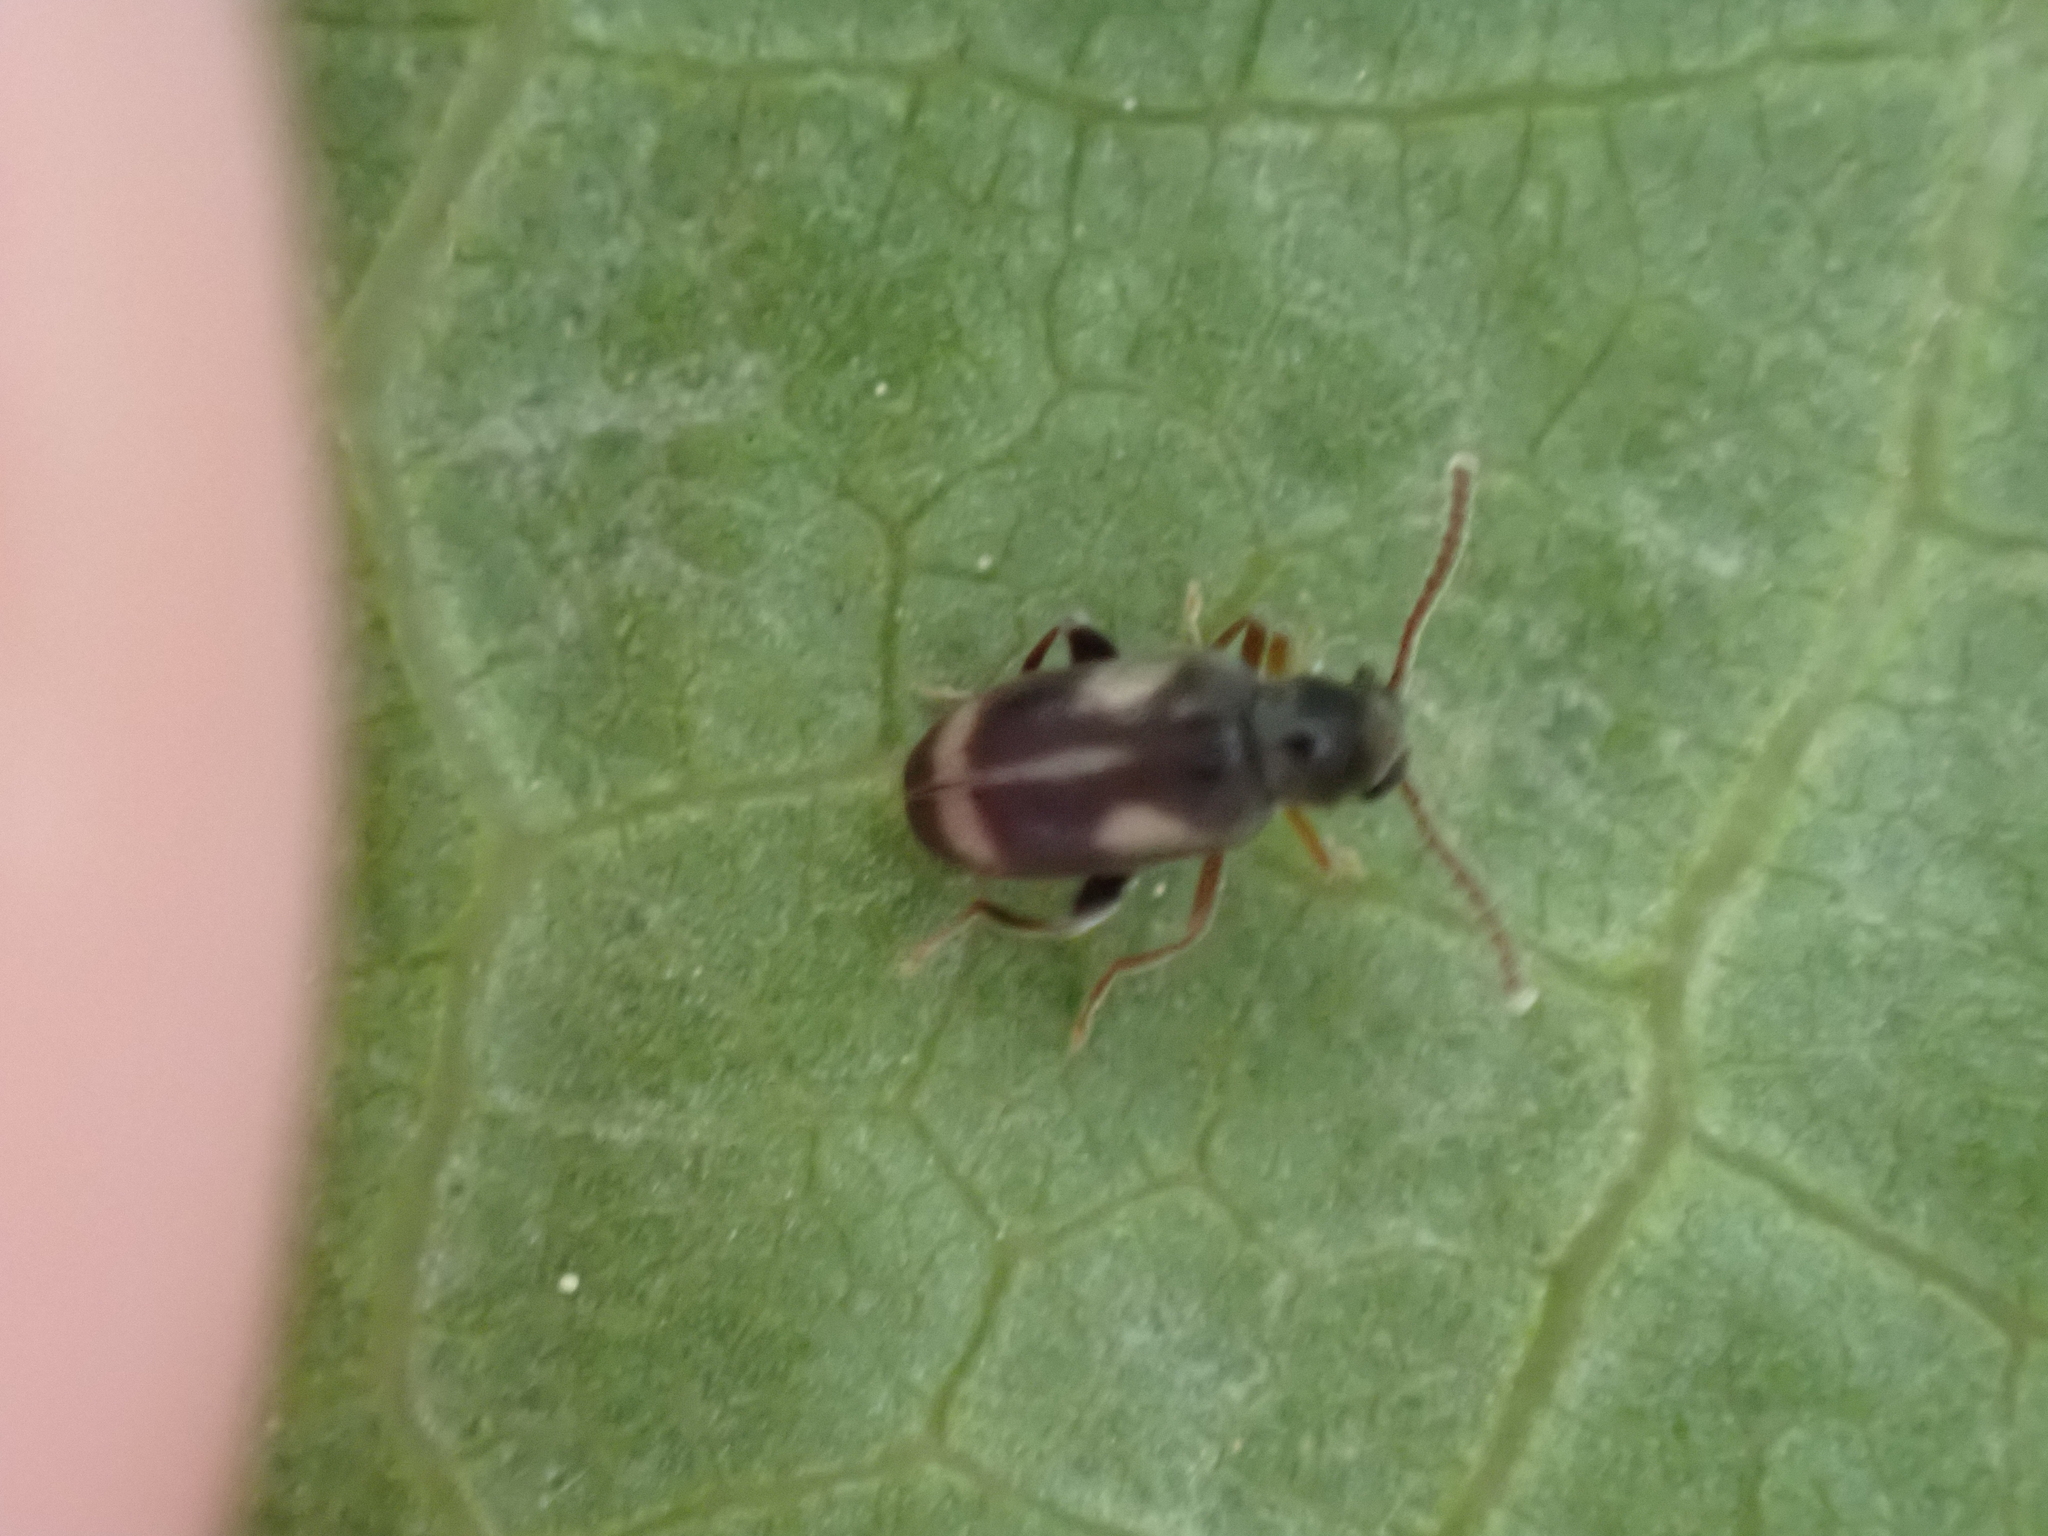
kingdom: Animalia
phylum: Arthropoda
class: Insecta
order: Coleoptera
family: Aderidae
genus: Phytobaenus
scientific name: Phytobaenus amabilis
